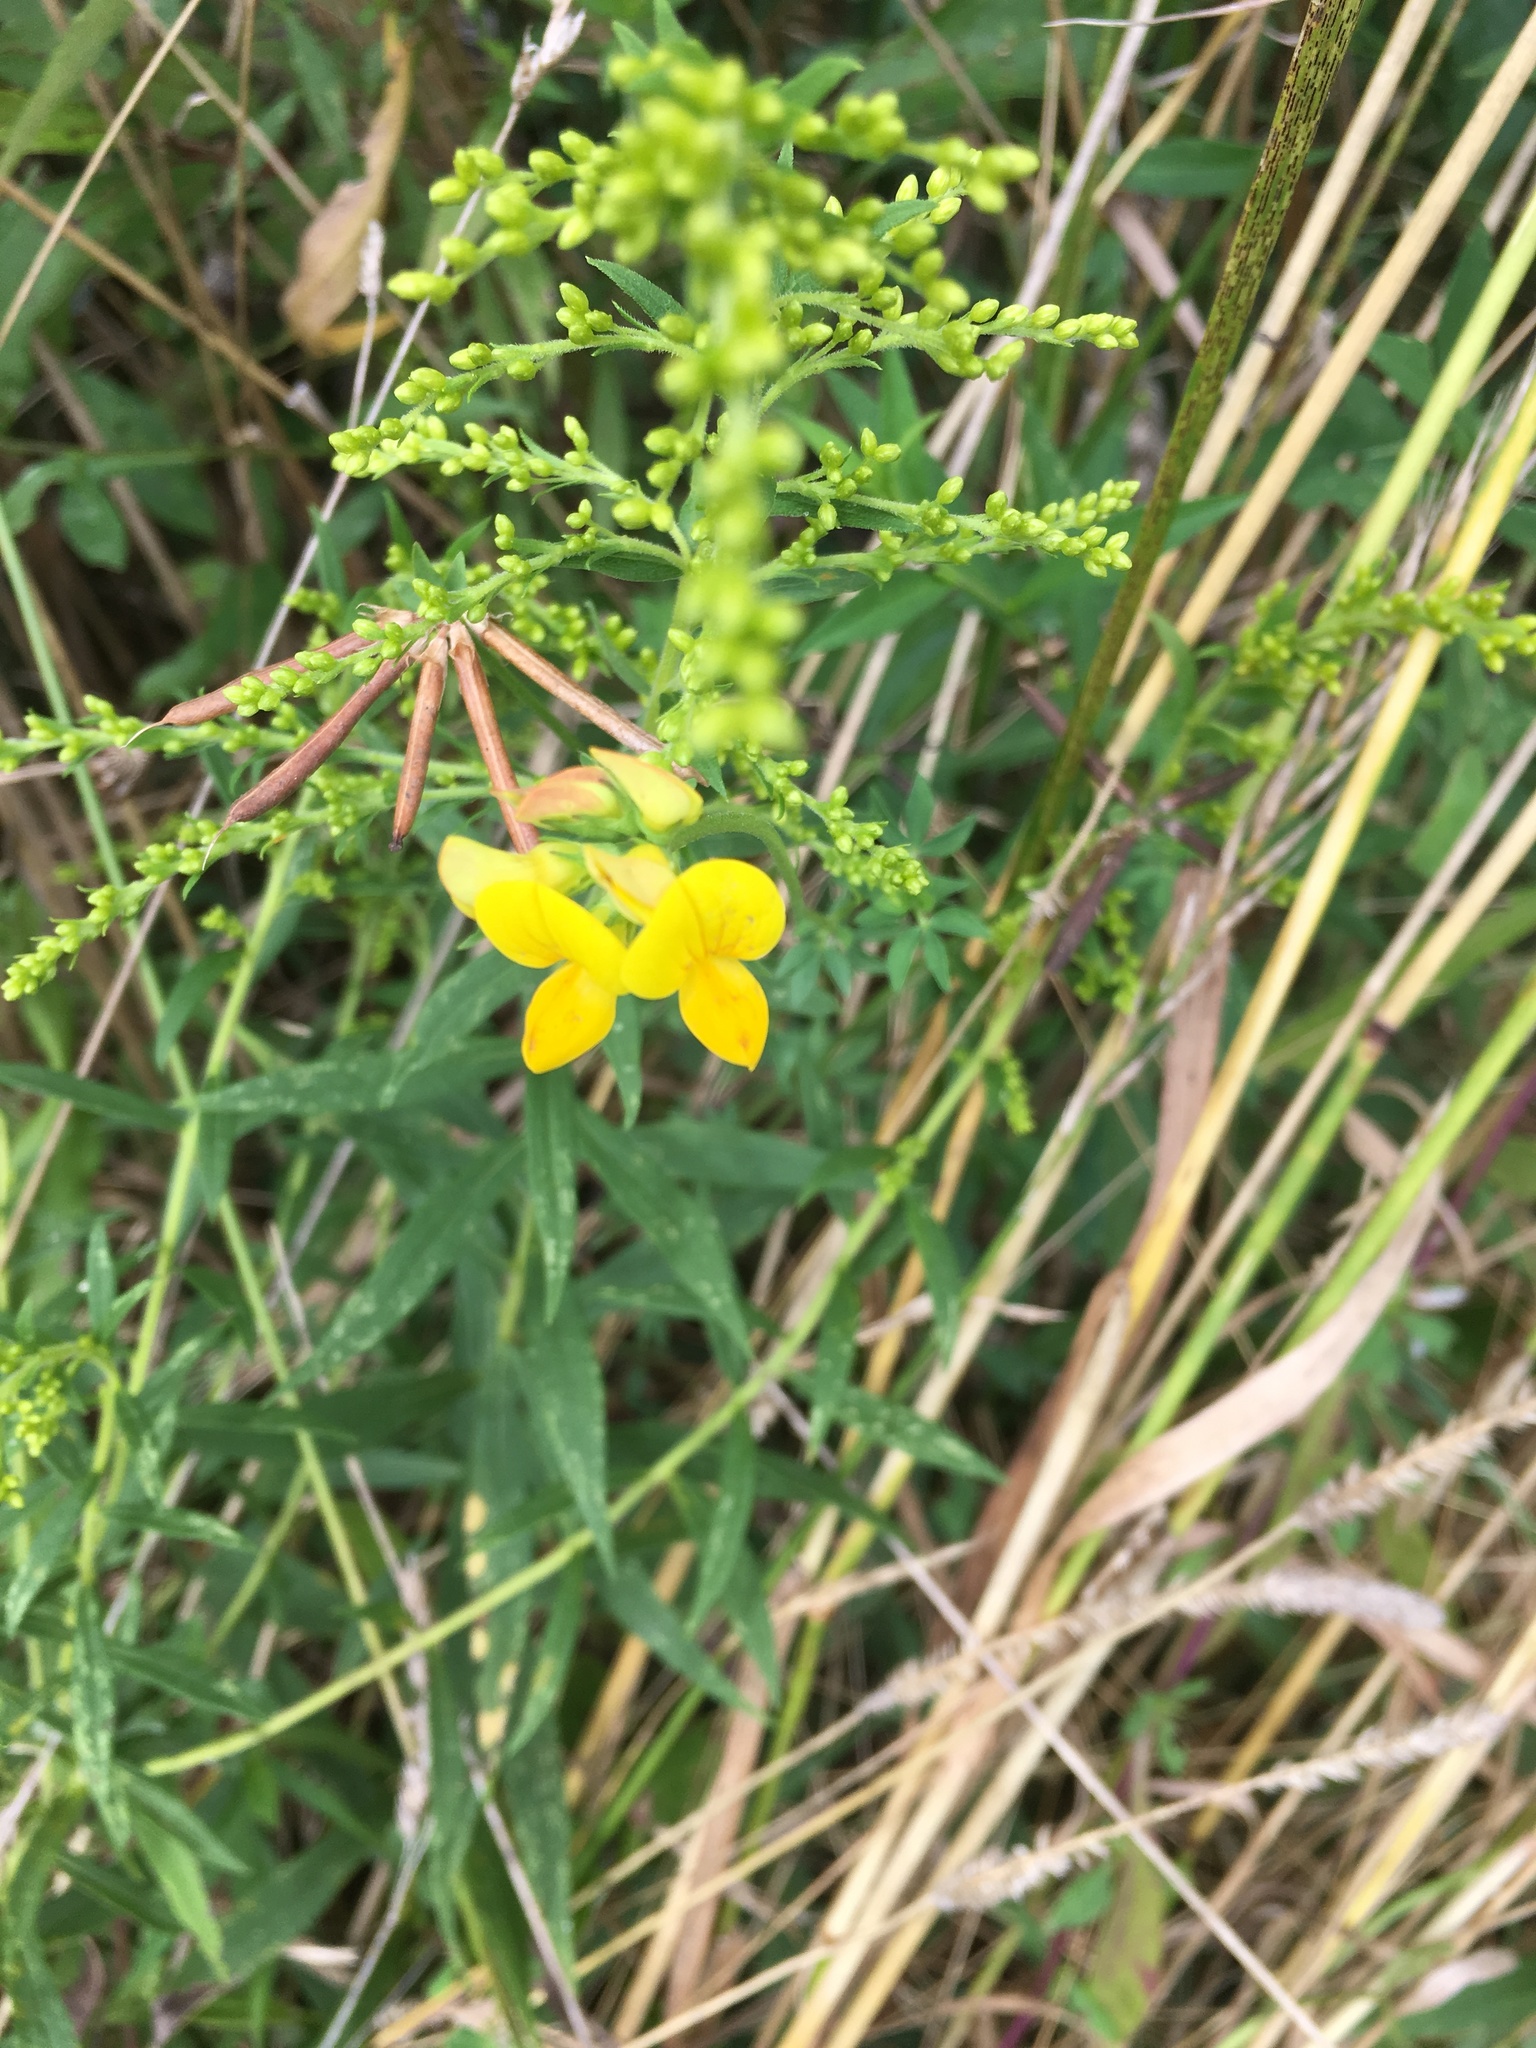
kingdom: Plantae
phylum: Tracheophyta
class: Magnoliopsida
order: Fabales
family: Fabaceae
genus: Lotus
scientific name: Lotus corniculatus
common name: Common bird's-foot-trefoil
